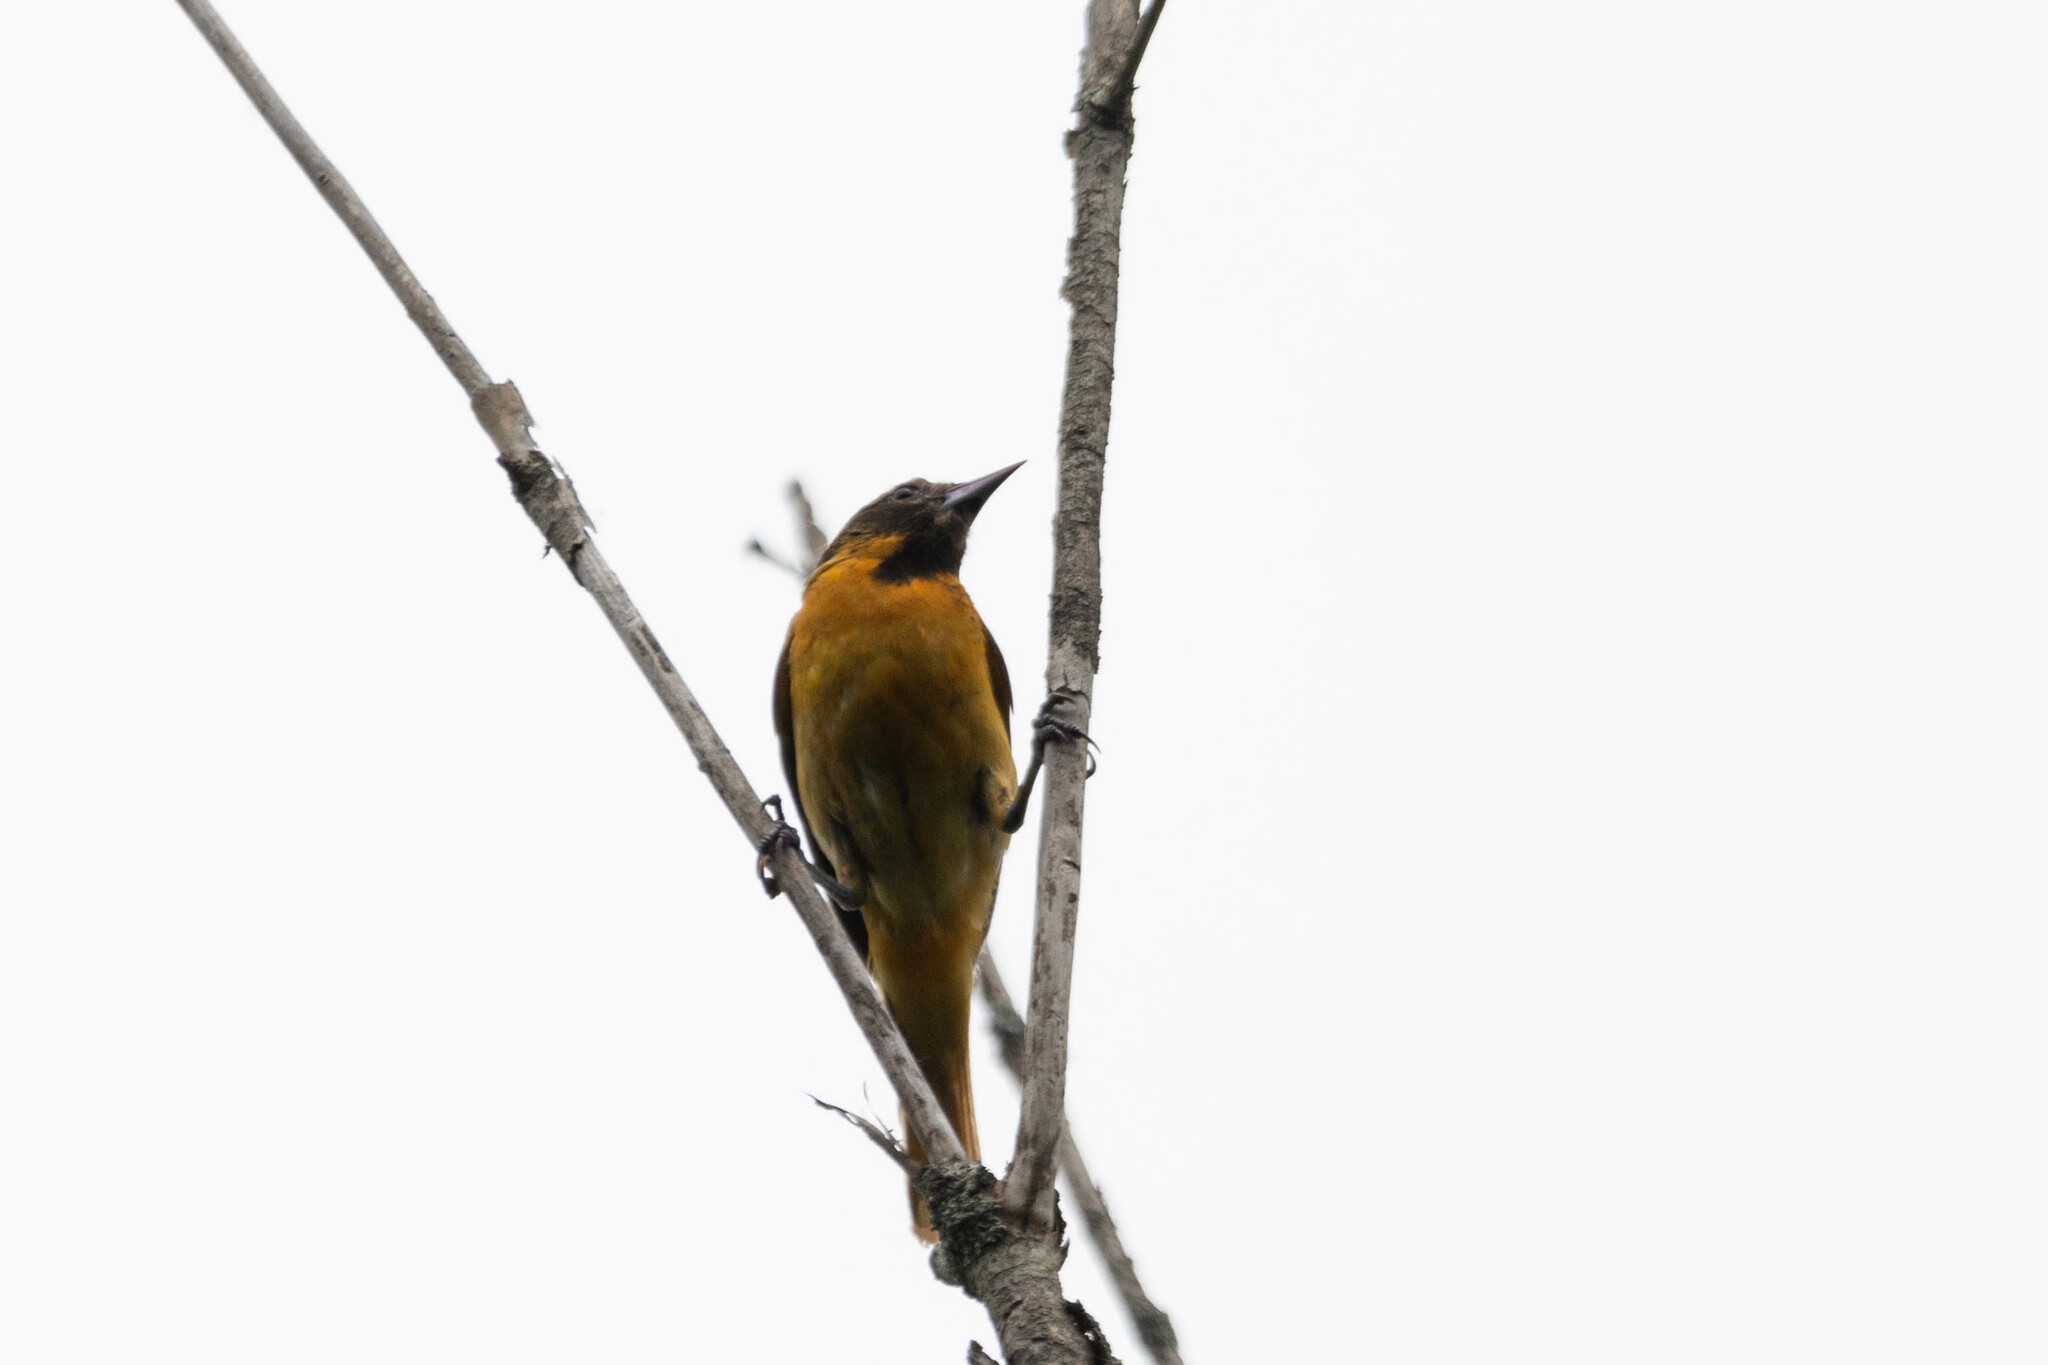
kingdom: Animalia
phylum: Chordata
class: Aves
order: Passeriformes
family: Icteridae
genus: Icterus
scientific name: Icterus galbula
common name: Baltimore oriole
